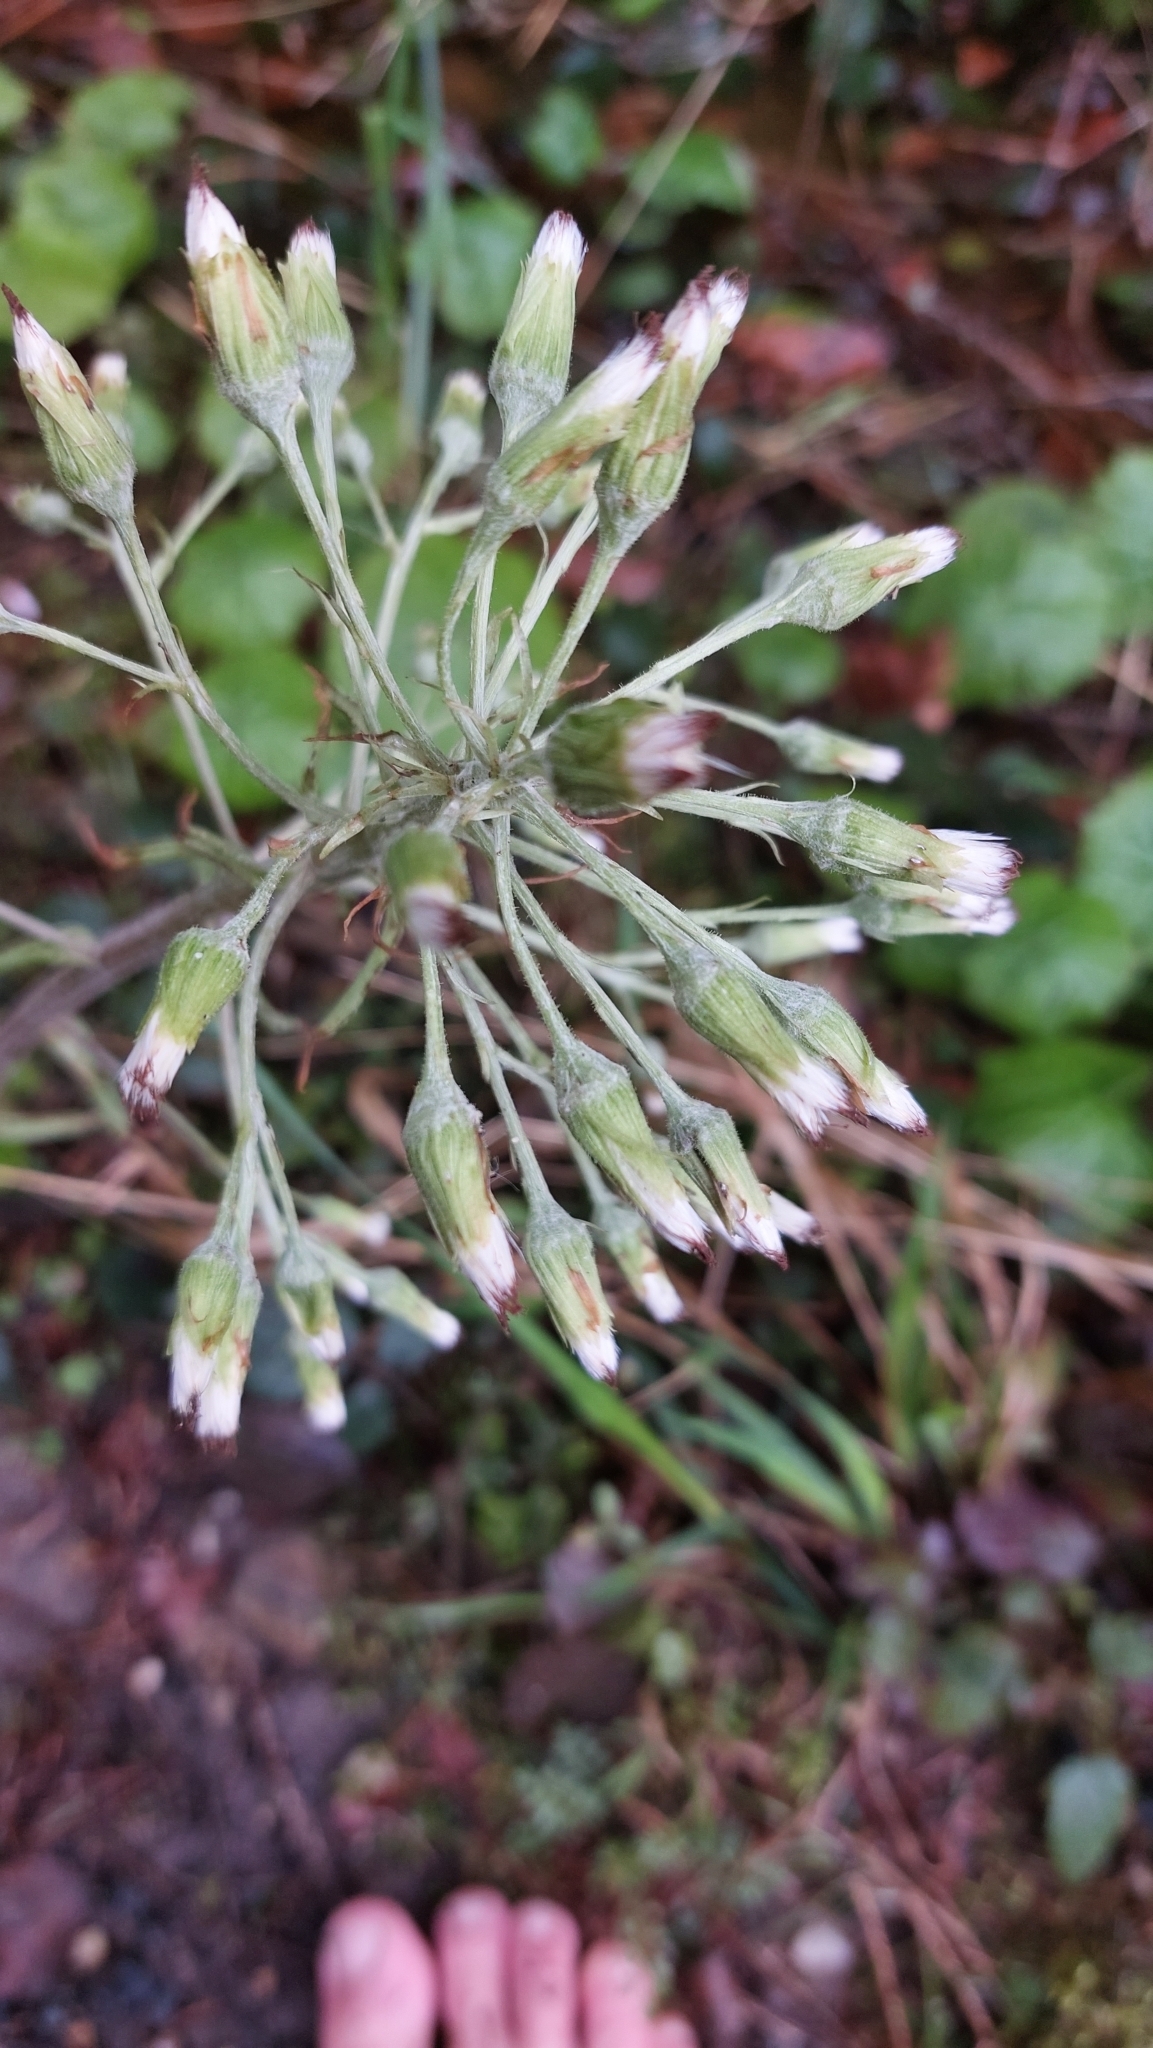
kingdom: Plantae
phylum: Tracheophyta
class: Magnoliopsida
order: Asterales
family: Asteraceae
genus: Petasites
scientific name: Petasites albus
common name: White butterbur
